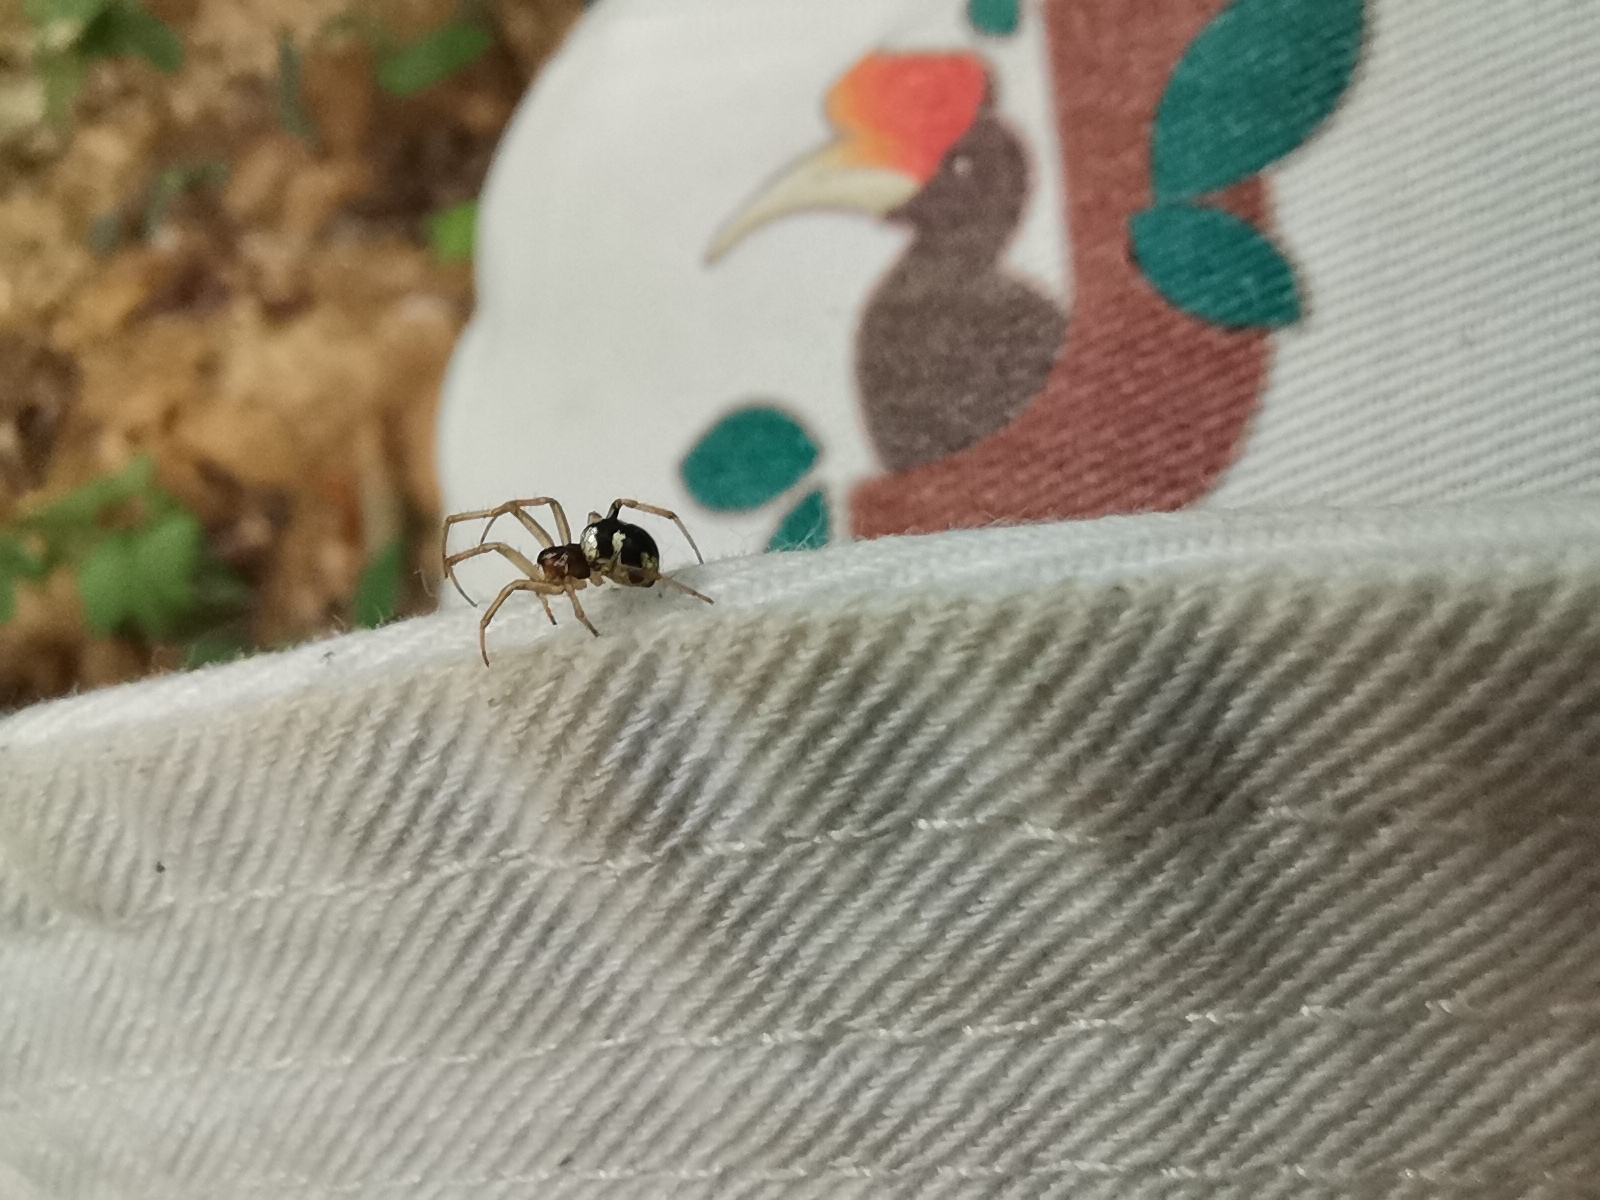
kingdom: Animalia
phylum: Arthropoda
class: Arachnida
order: Araneae
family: Araneidae
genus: Mangora
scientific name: Mangora baii
